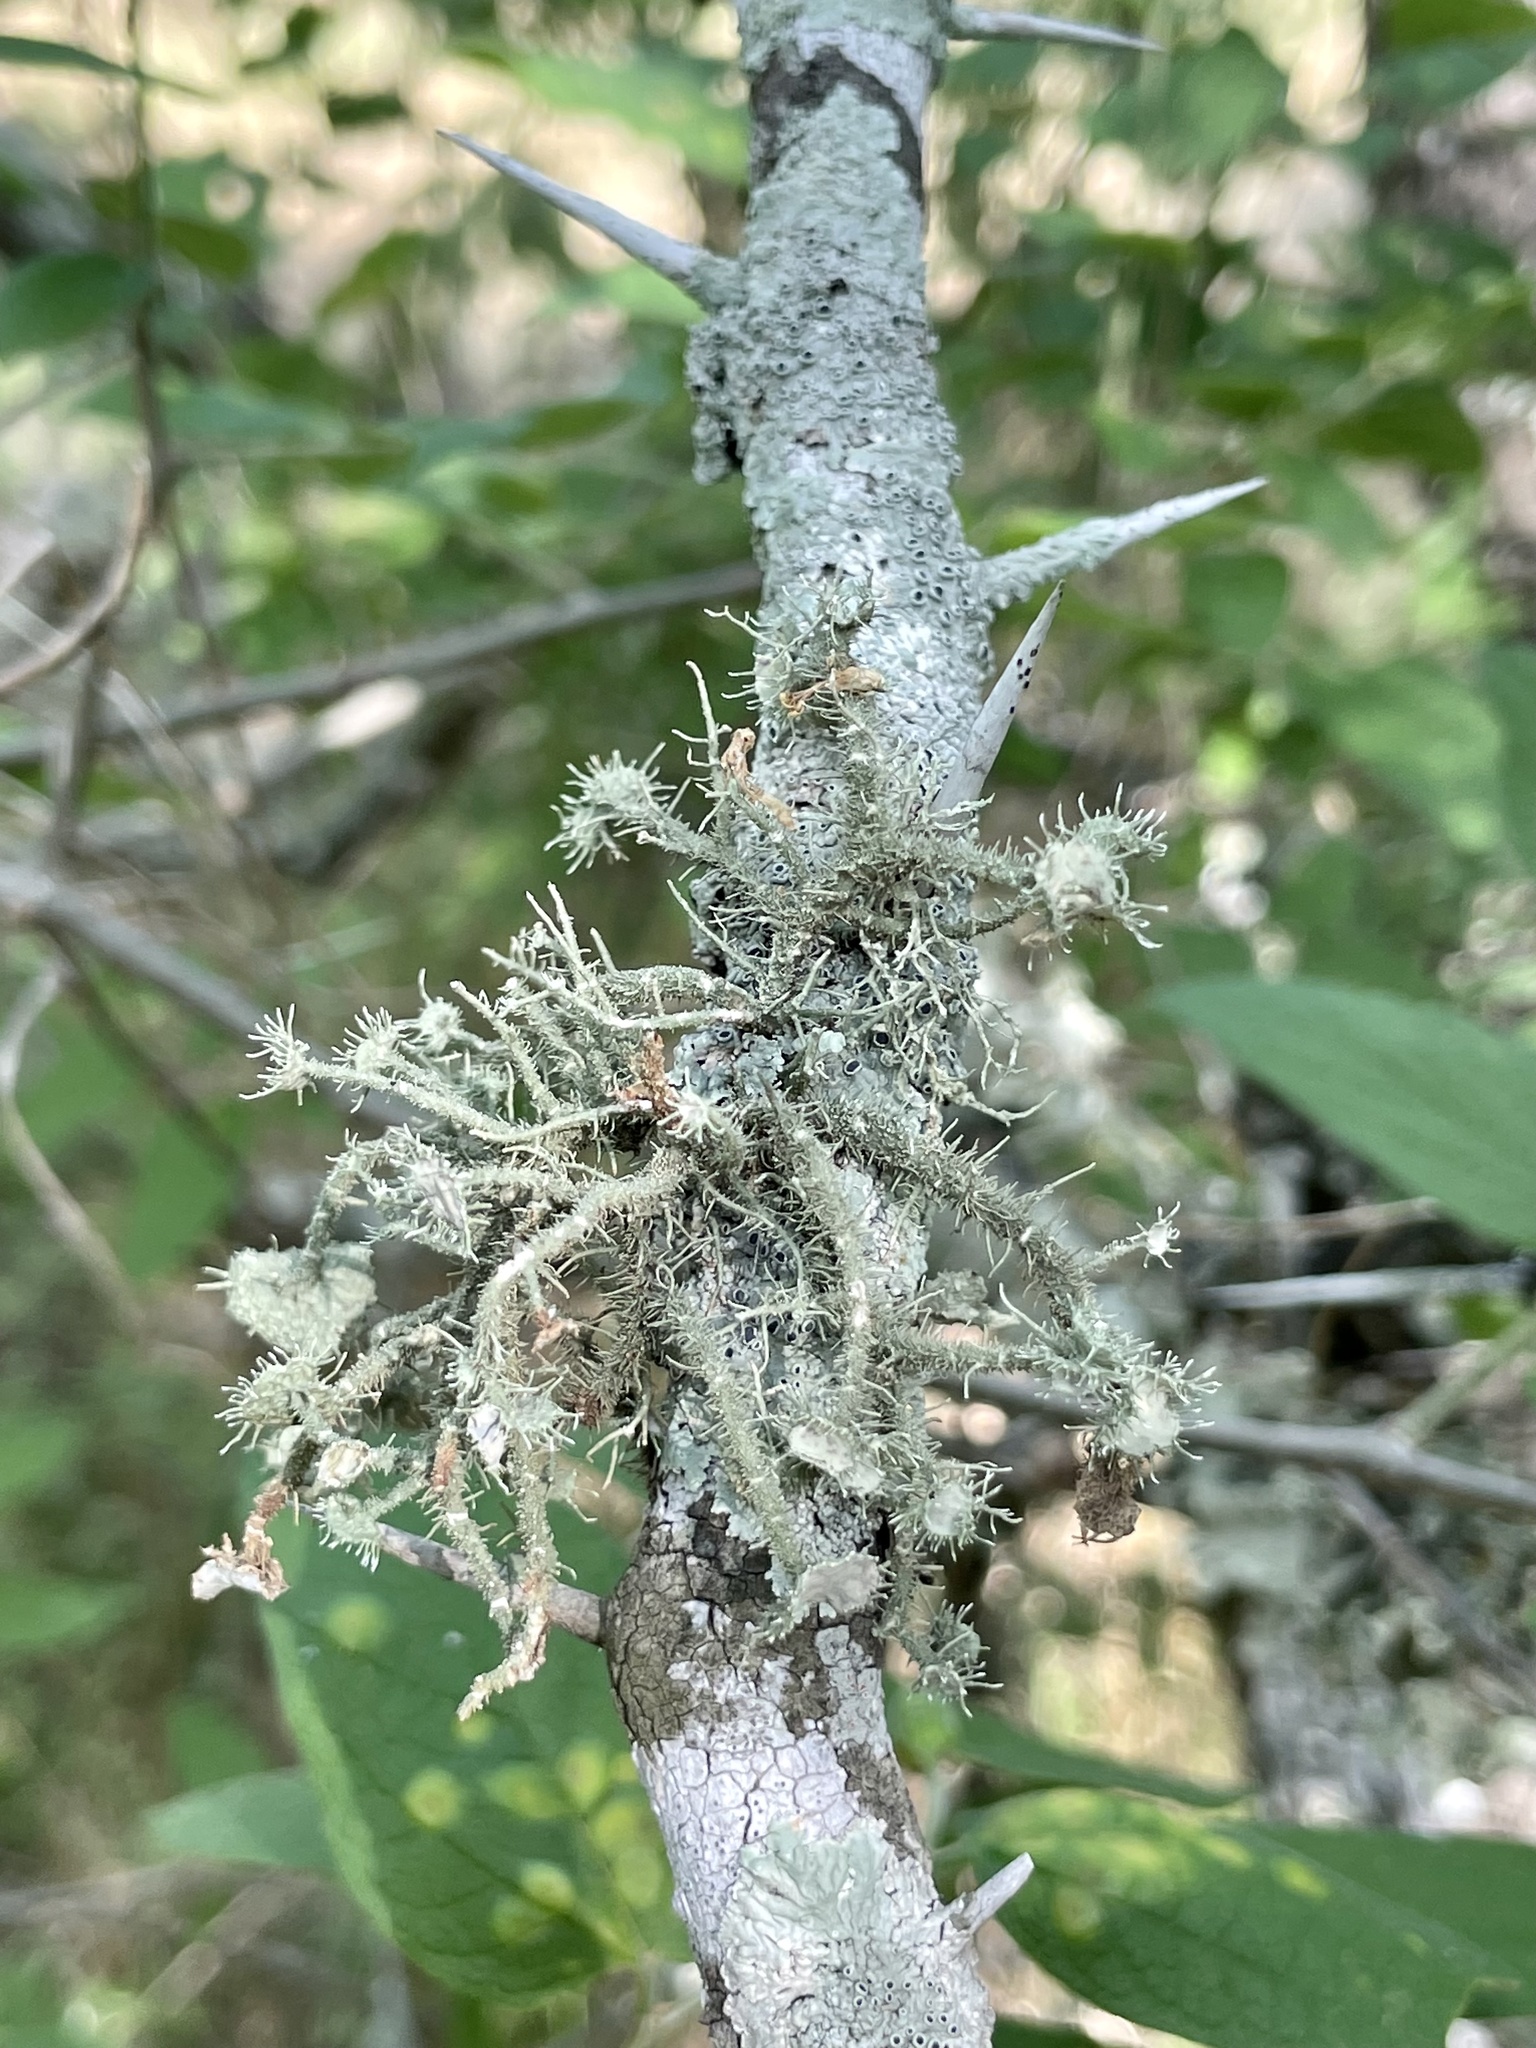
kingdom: Fungi
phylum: Ascomycota
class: Lecanoromycetes
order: Lecanorales
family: Parmeliaceae
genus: Usnea
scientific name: Usnea strigosa
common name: Bushy beard lichen
